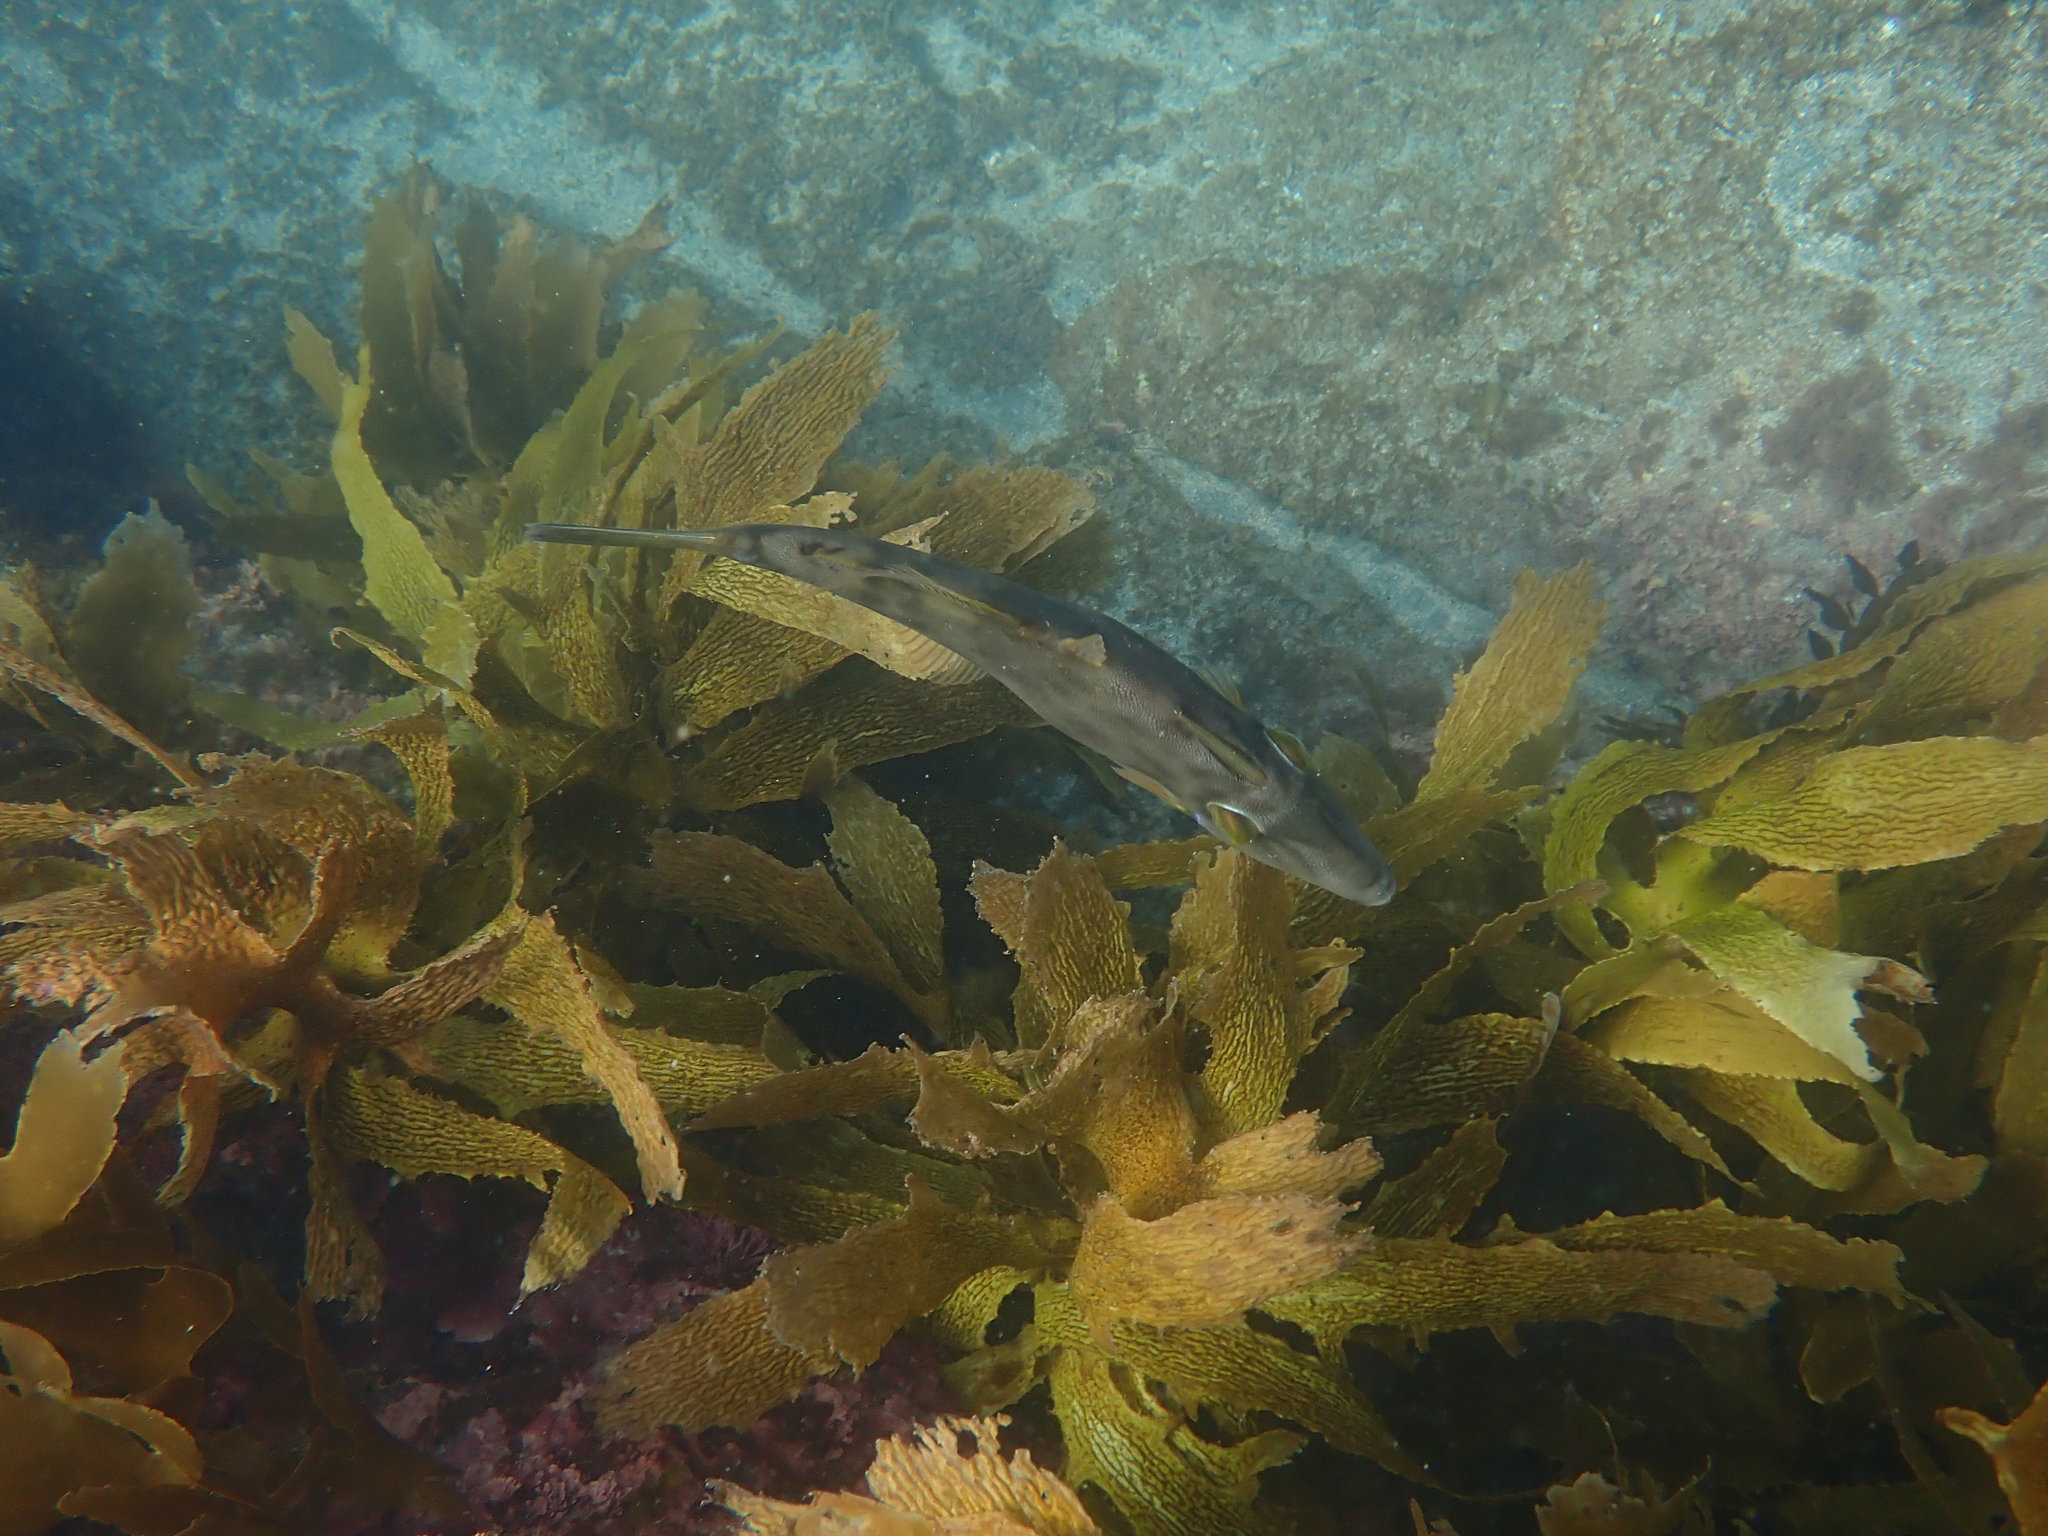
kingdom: Animalia
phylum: Chordata
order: Tetraodontiformes
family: Monacanthidae
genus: Meuschenia
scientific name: Meuschenia scaber
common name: Cosmopolitan leatherjacket
